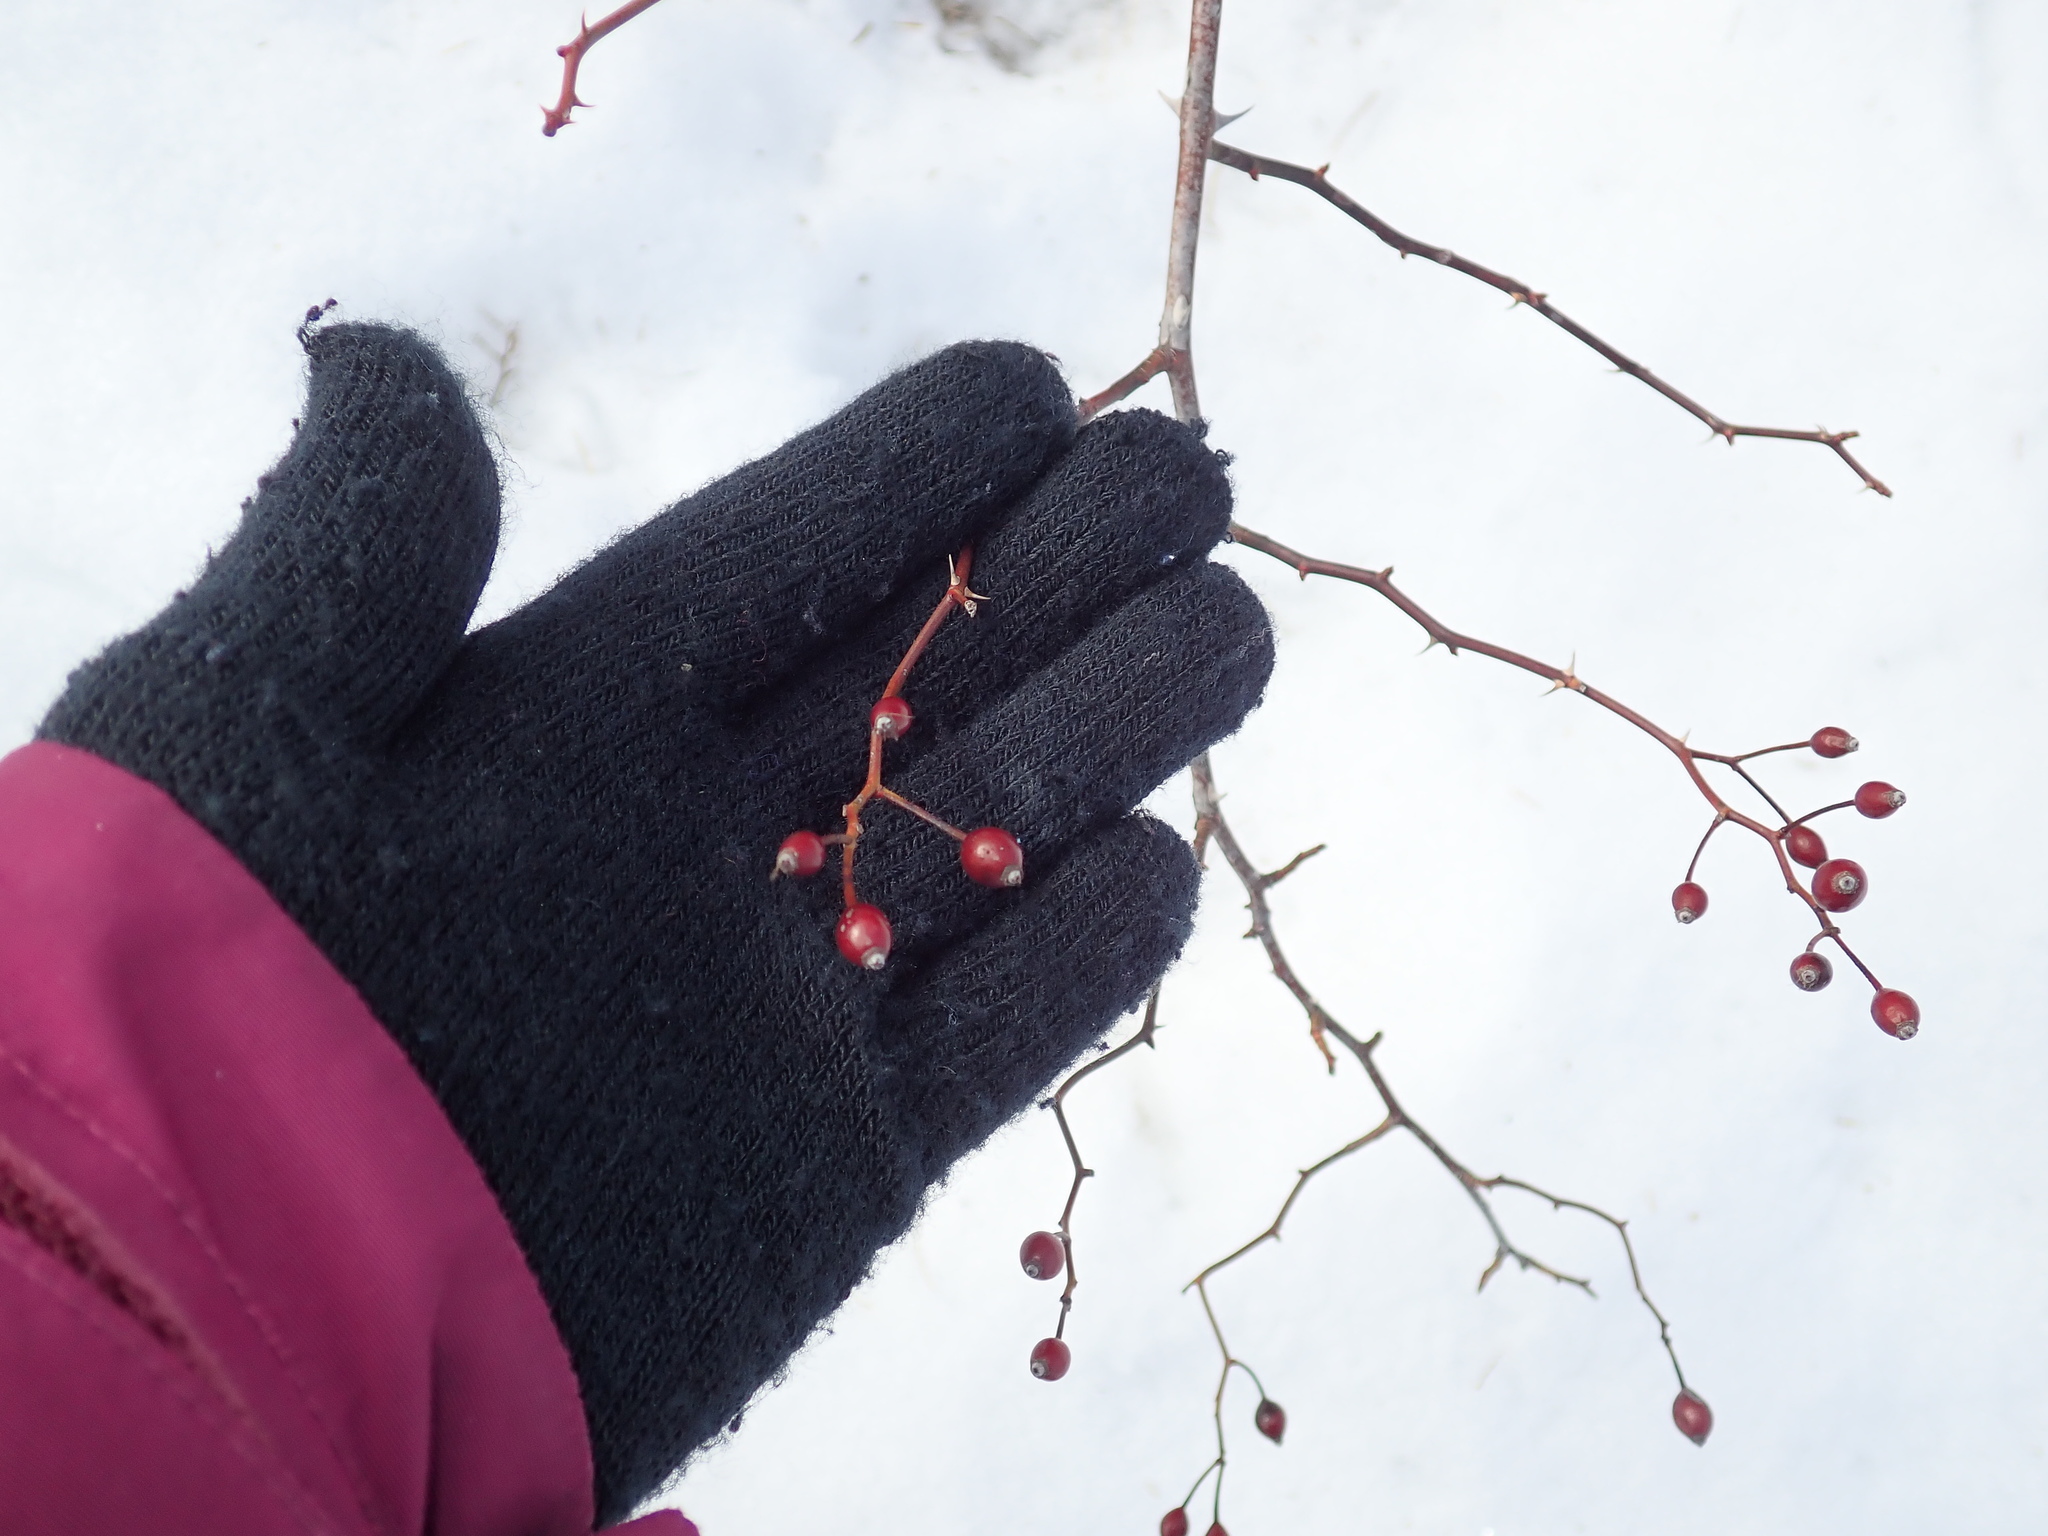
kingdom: Plantae
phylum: Tracheophyta
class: Magnoliopsida
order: Rosales
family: Rosaceae
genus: Rosa
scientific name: Rosa multiflora
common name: Multiflora rose
